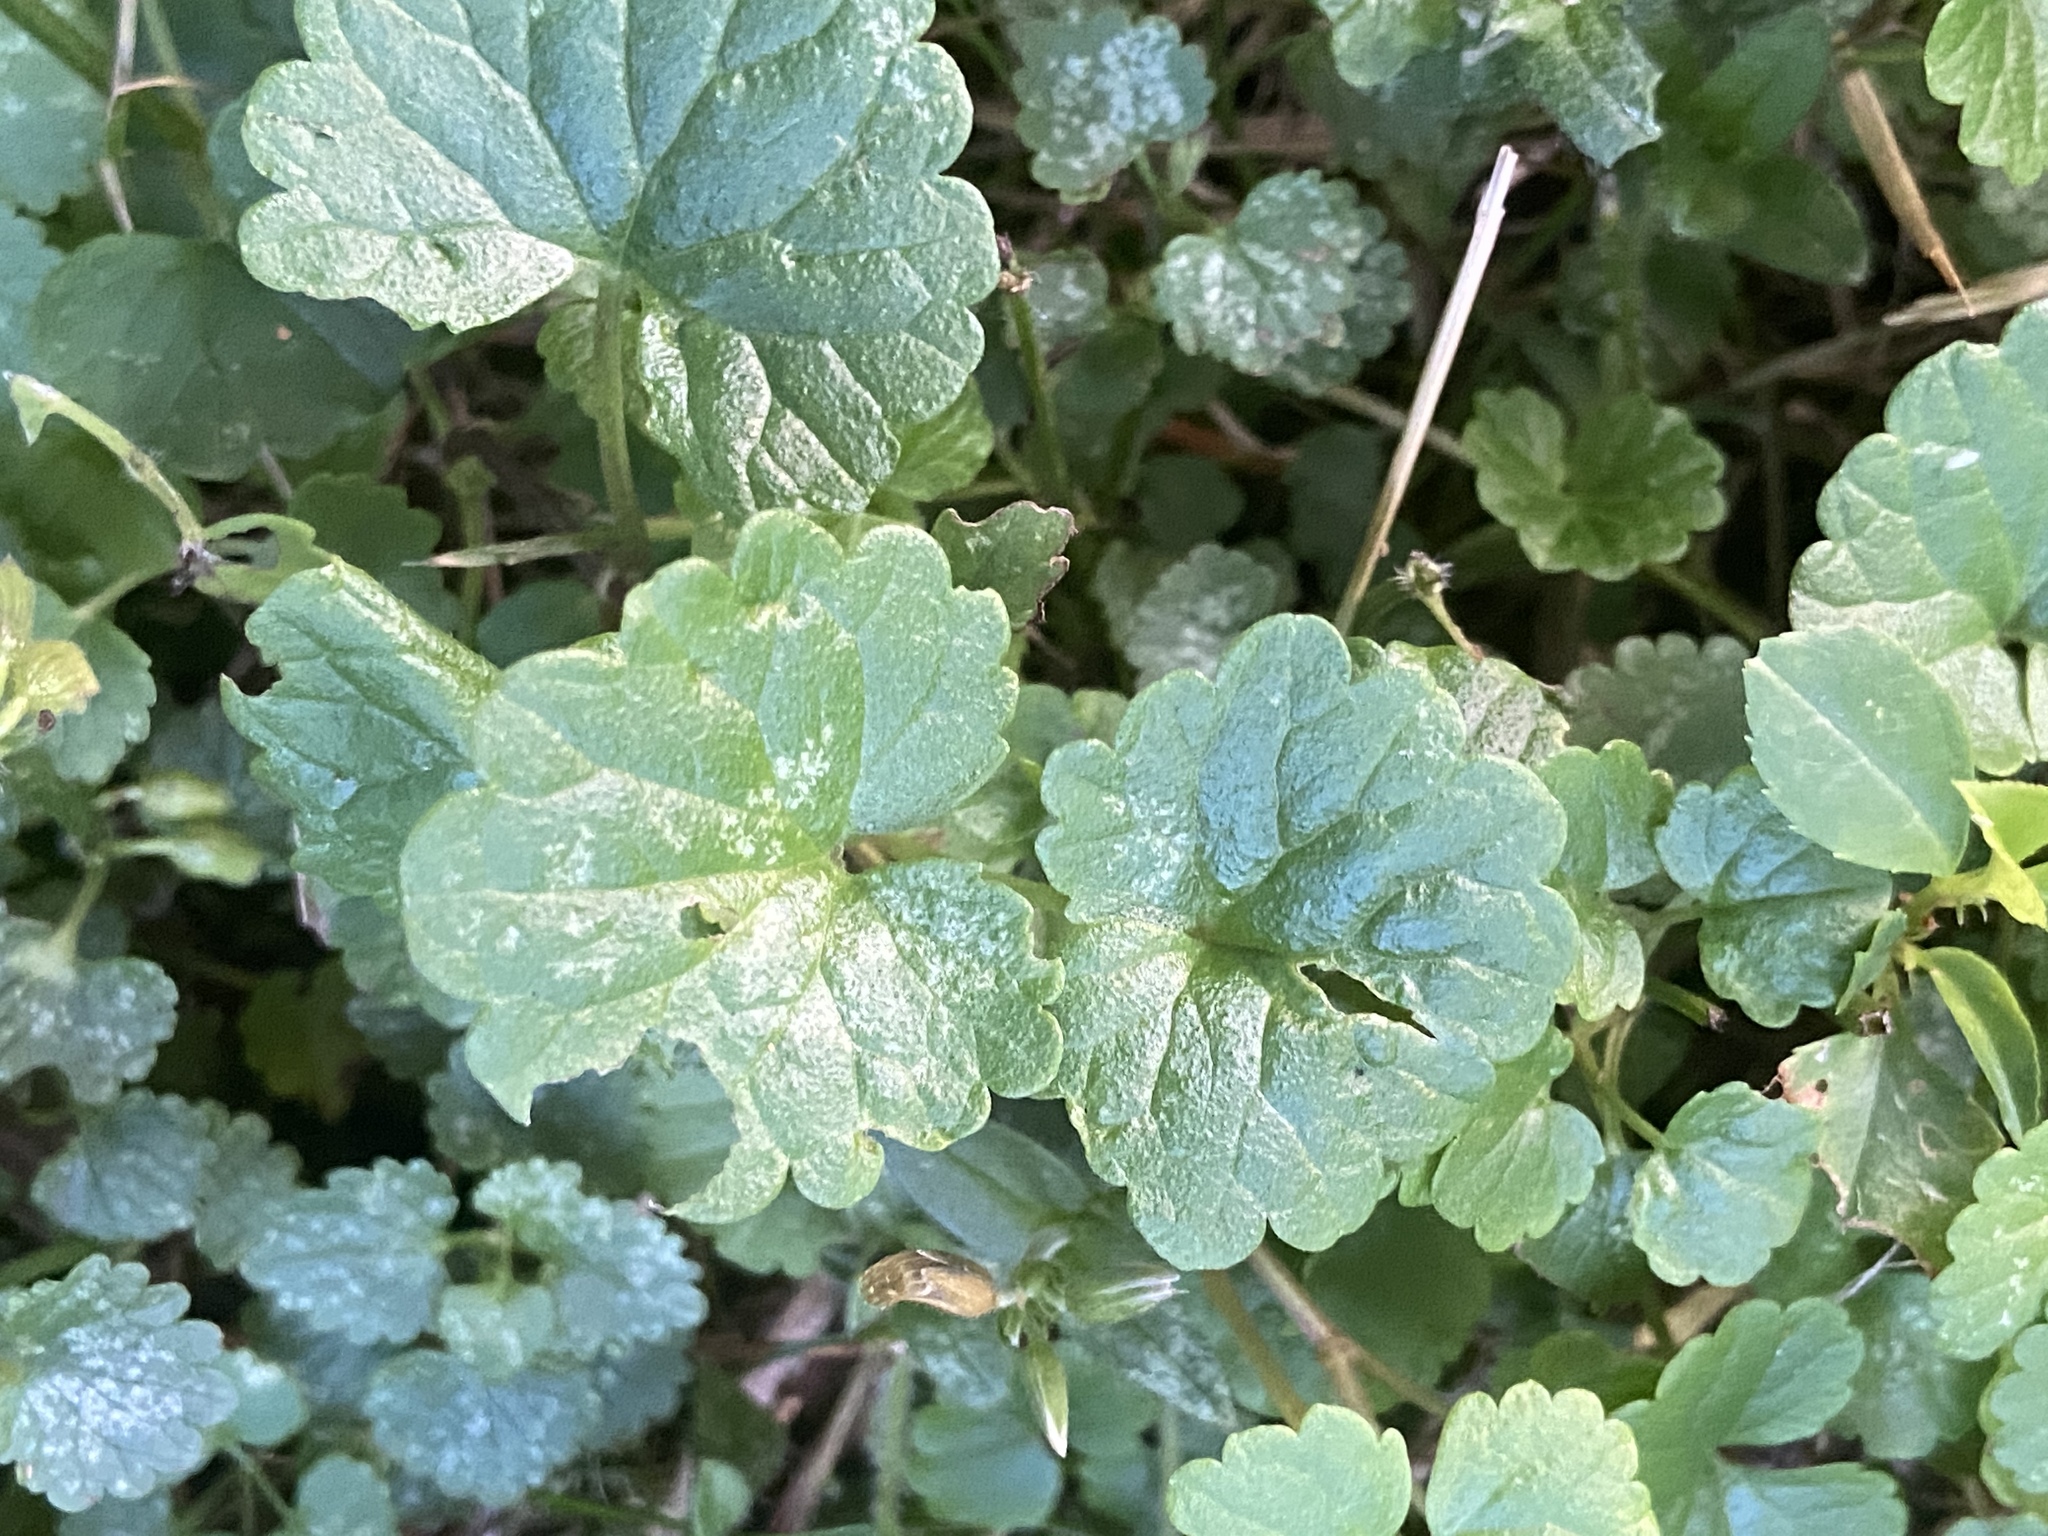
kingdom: Plantae
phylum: Tracheophyta
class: Magnoliopsida
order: Lamiales
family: Lamiaceae
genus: Glechoma
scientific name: Glechoma hederacea
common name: Ground ivy
